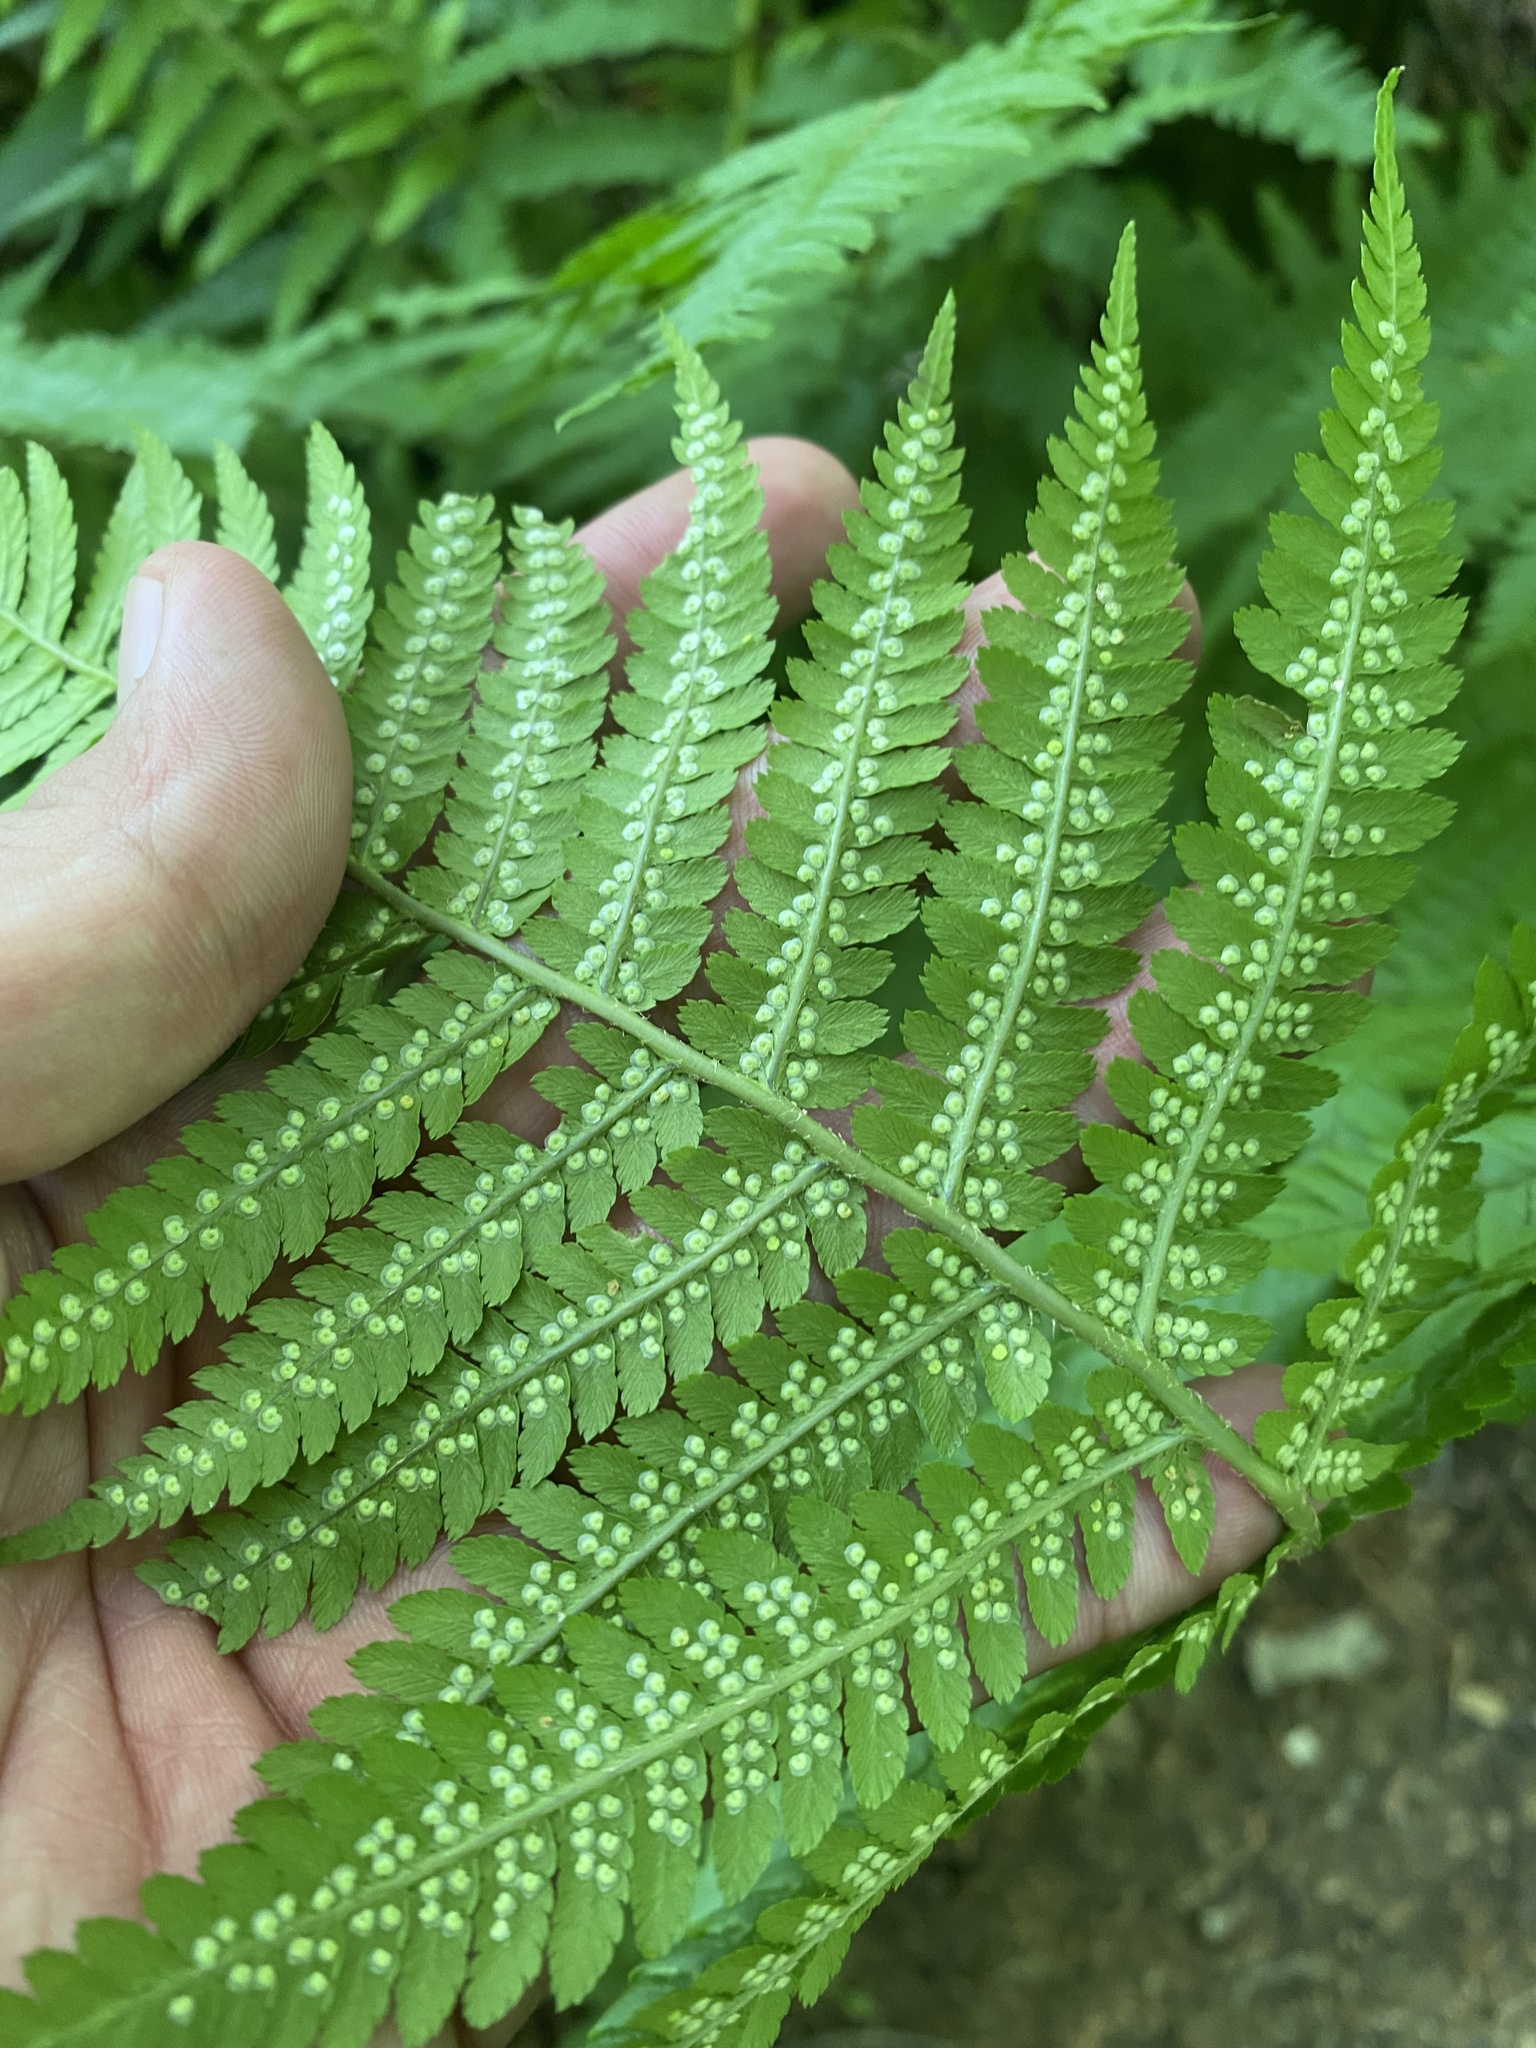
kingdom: Plantae
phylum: Tracheophyta
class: Polypodiopsida
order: Polypodiales
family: Dryopteridaceae
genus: Dryopteris
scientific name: Dryopteris filix-mas
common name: Male fern
